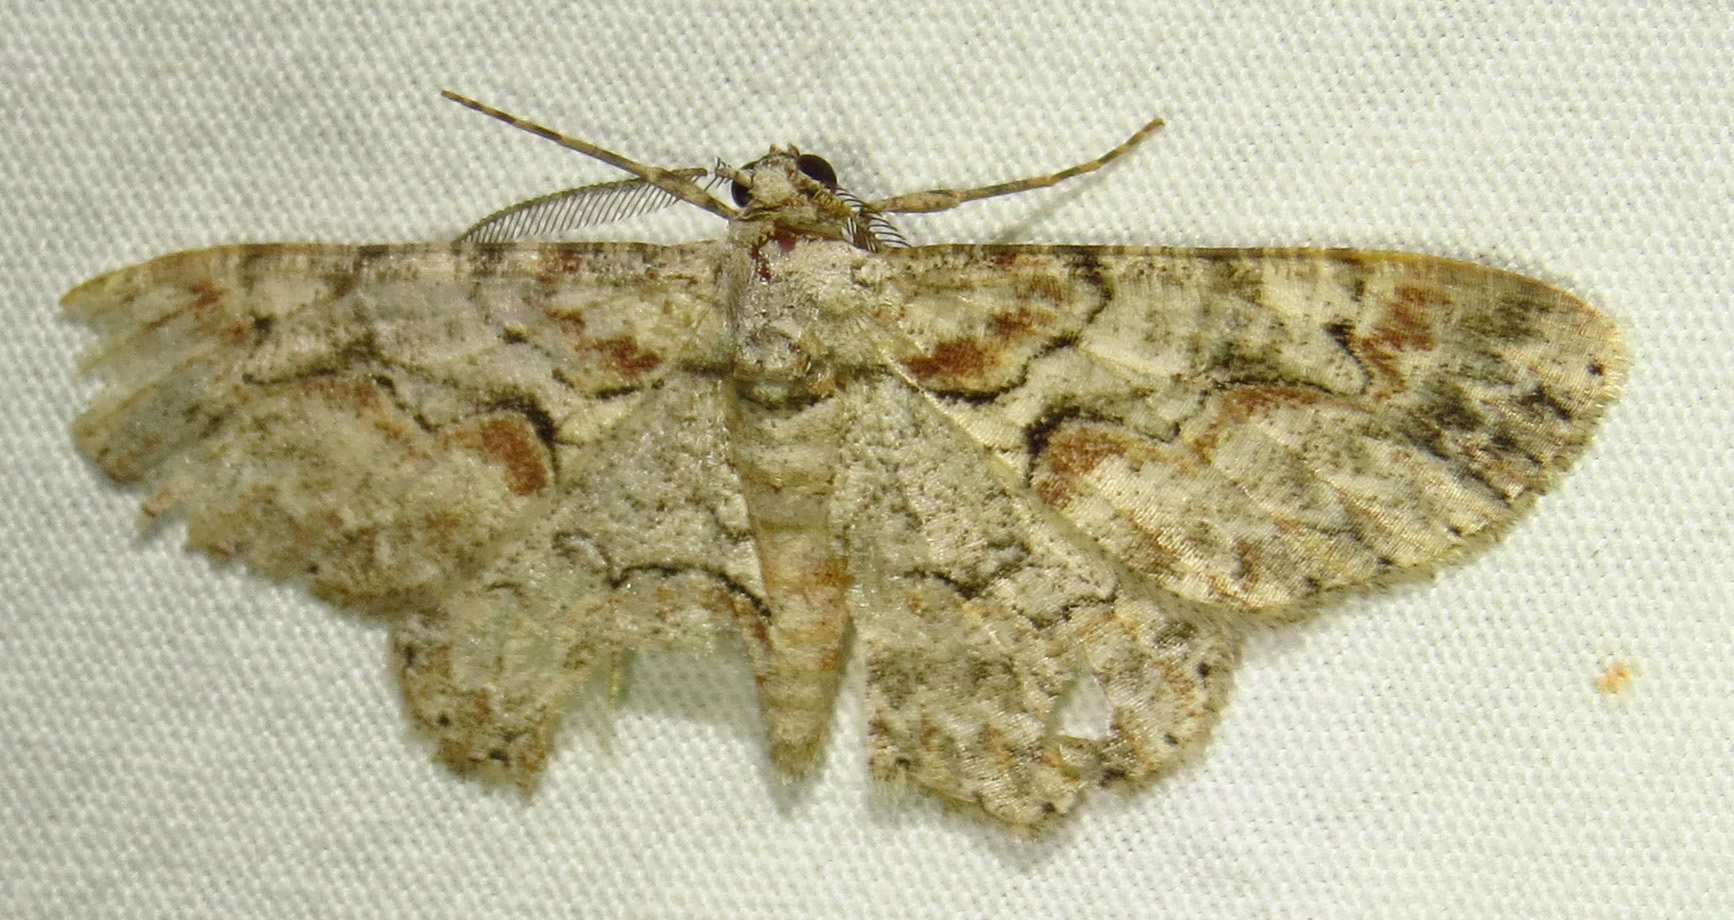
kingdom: Animalia
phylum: Arthropoda
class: Insecta
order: Lepidoptera
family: Geometridae
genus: Iridopsis
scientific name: Iridopsis defectaria
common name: Brown-shaded gray
